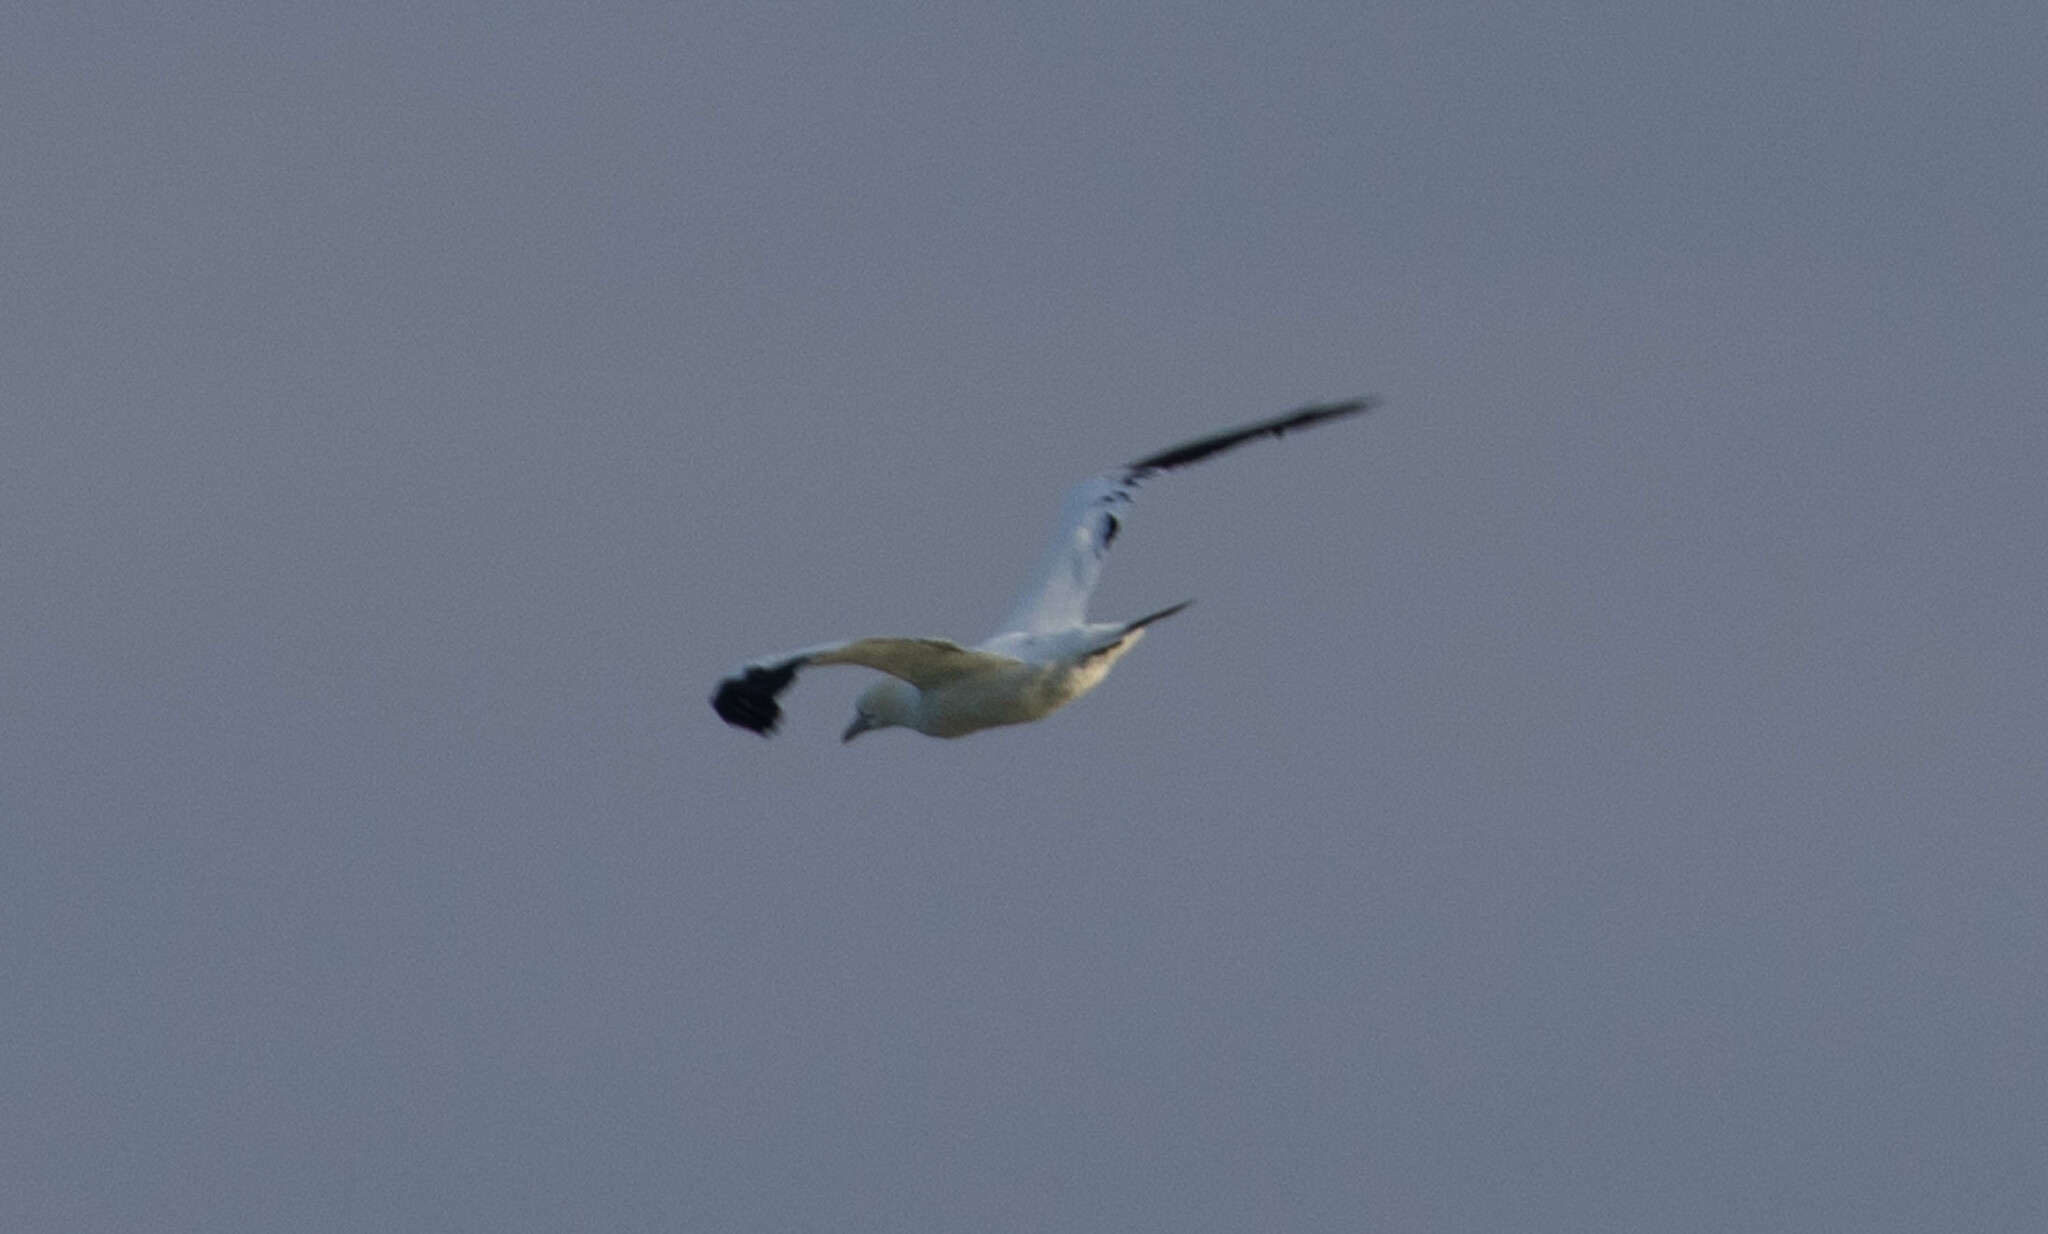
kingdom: Animalia
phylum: Chordata
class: Aves
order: Suliformes
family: Sulidae
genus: Morus
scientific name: Morus bassanus
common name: Northern gannet
